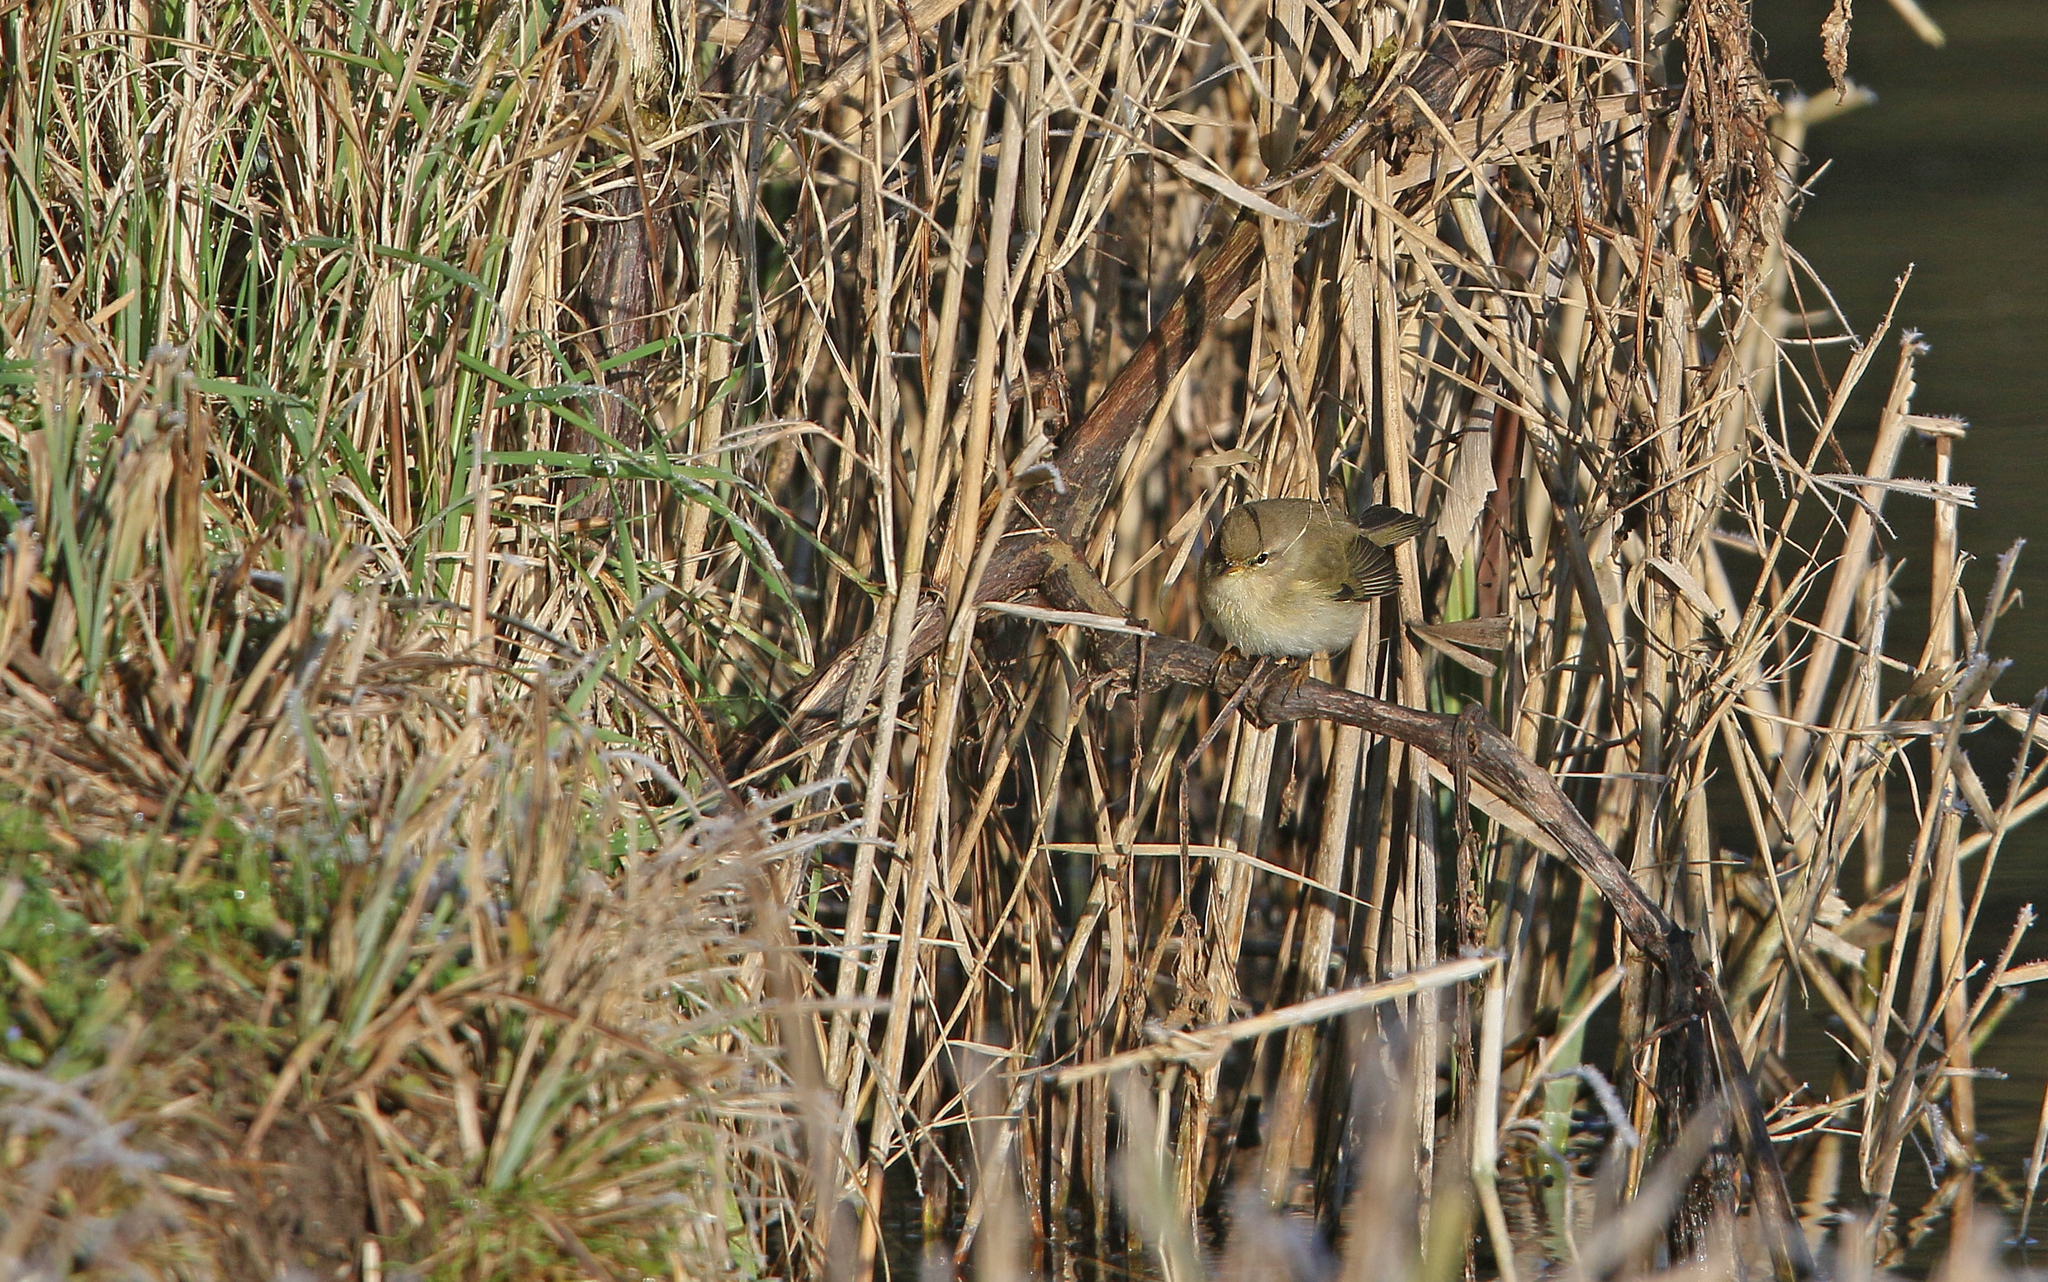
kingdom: Animalia
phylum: Chordata
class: Aves
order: Passeriformes
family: Phylloscopidae
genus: Phylloscopus
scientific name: Phylloscopus collybita
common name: Common chiffchaff
